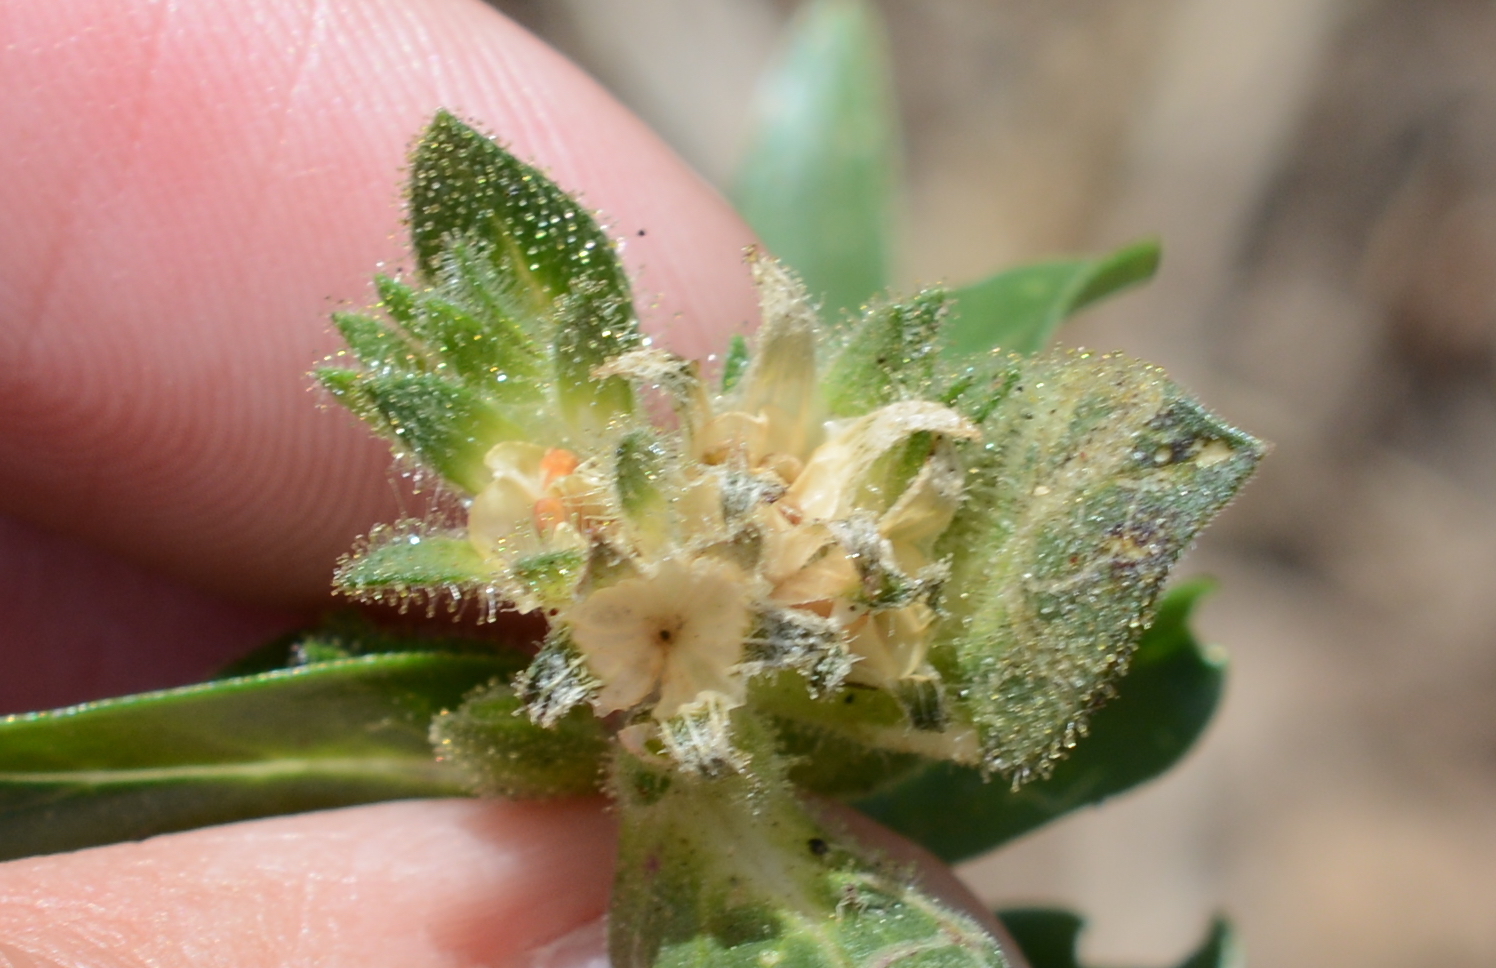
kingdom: Plantae
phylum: Tracheophyta
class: Magnoliopsida
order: Ericales
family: Polemoniaceae
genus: Collomia
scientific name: Collomia grandiflora
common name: California strawflower
